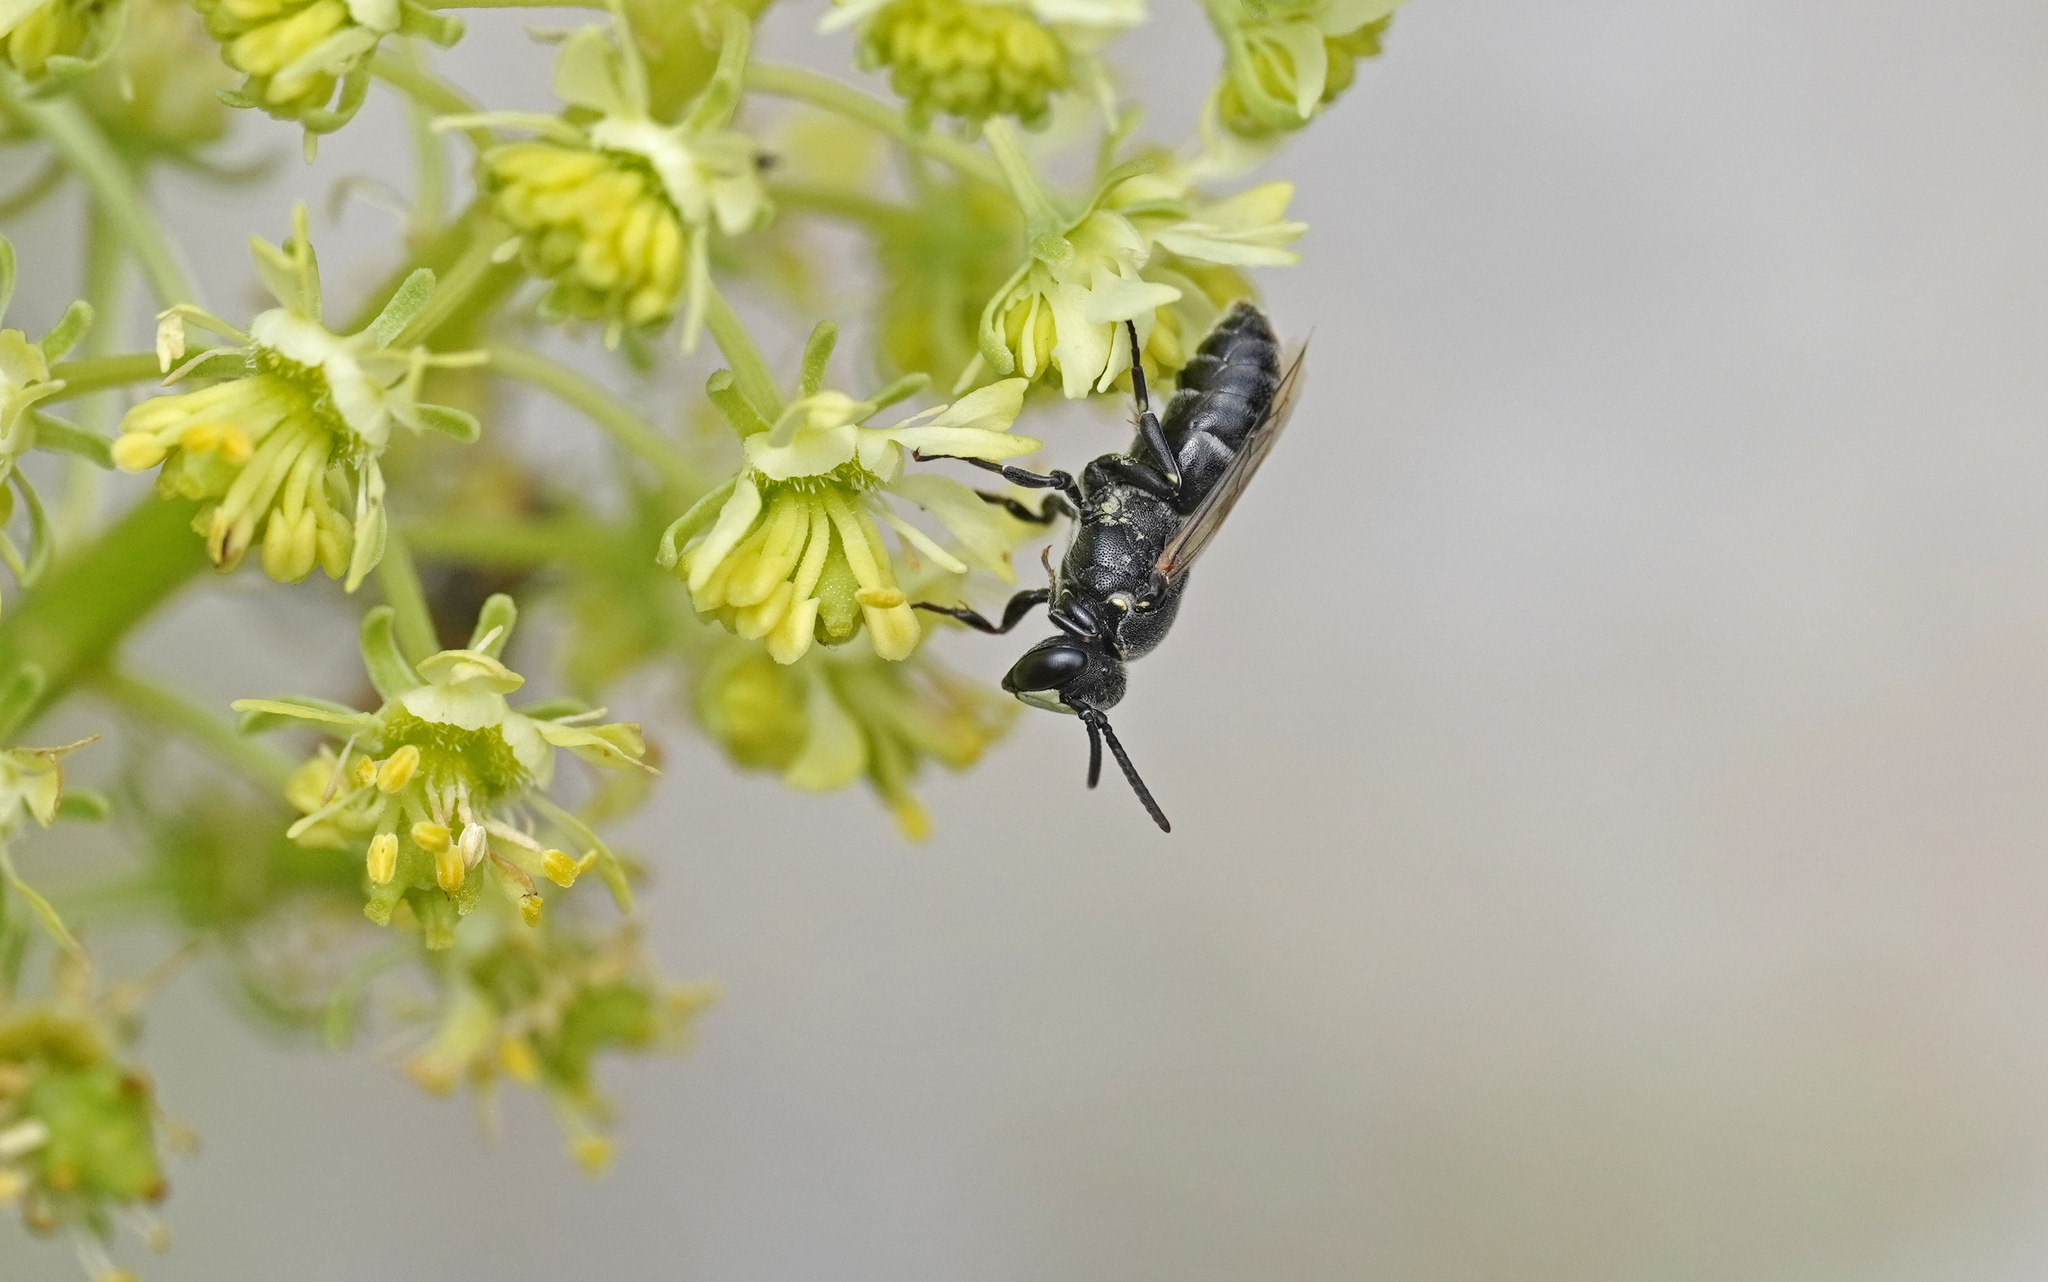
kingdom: Animalia
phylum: Arthropoda
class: Insecta
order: Hymenoptera
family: Colletidae
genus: Hylaeus
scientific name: Hylaeus signatus
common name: Large yellow-face bee
